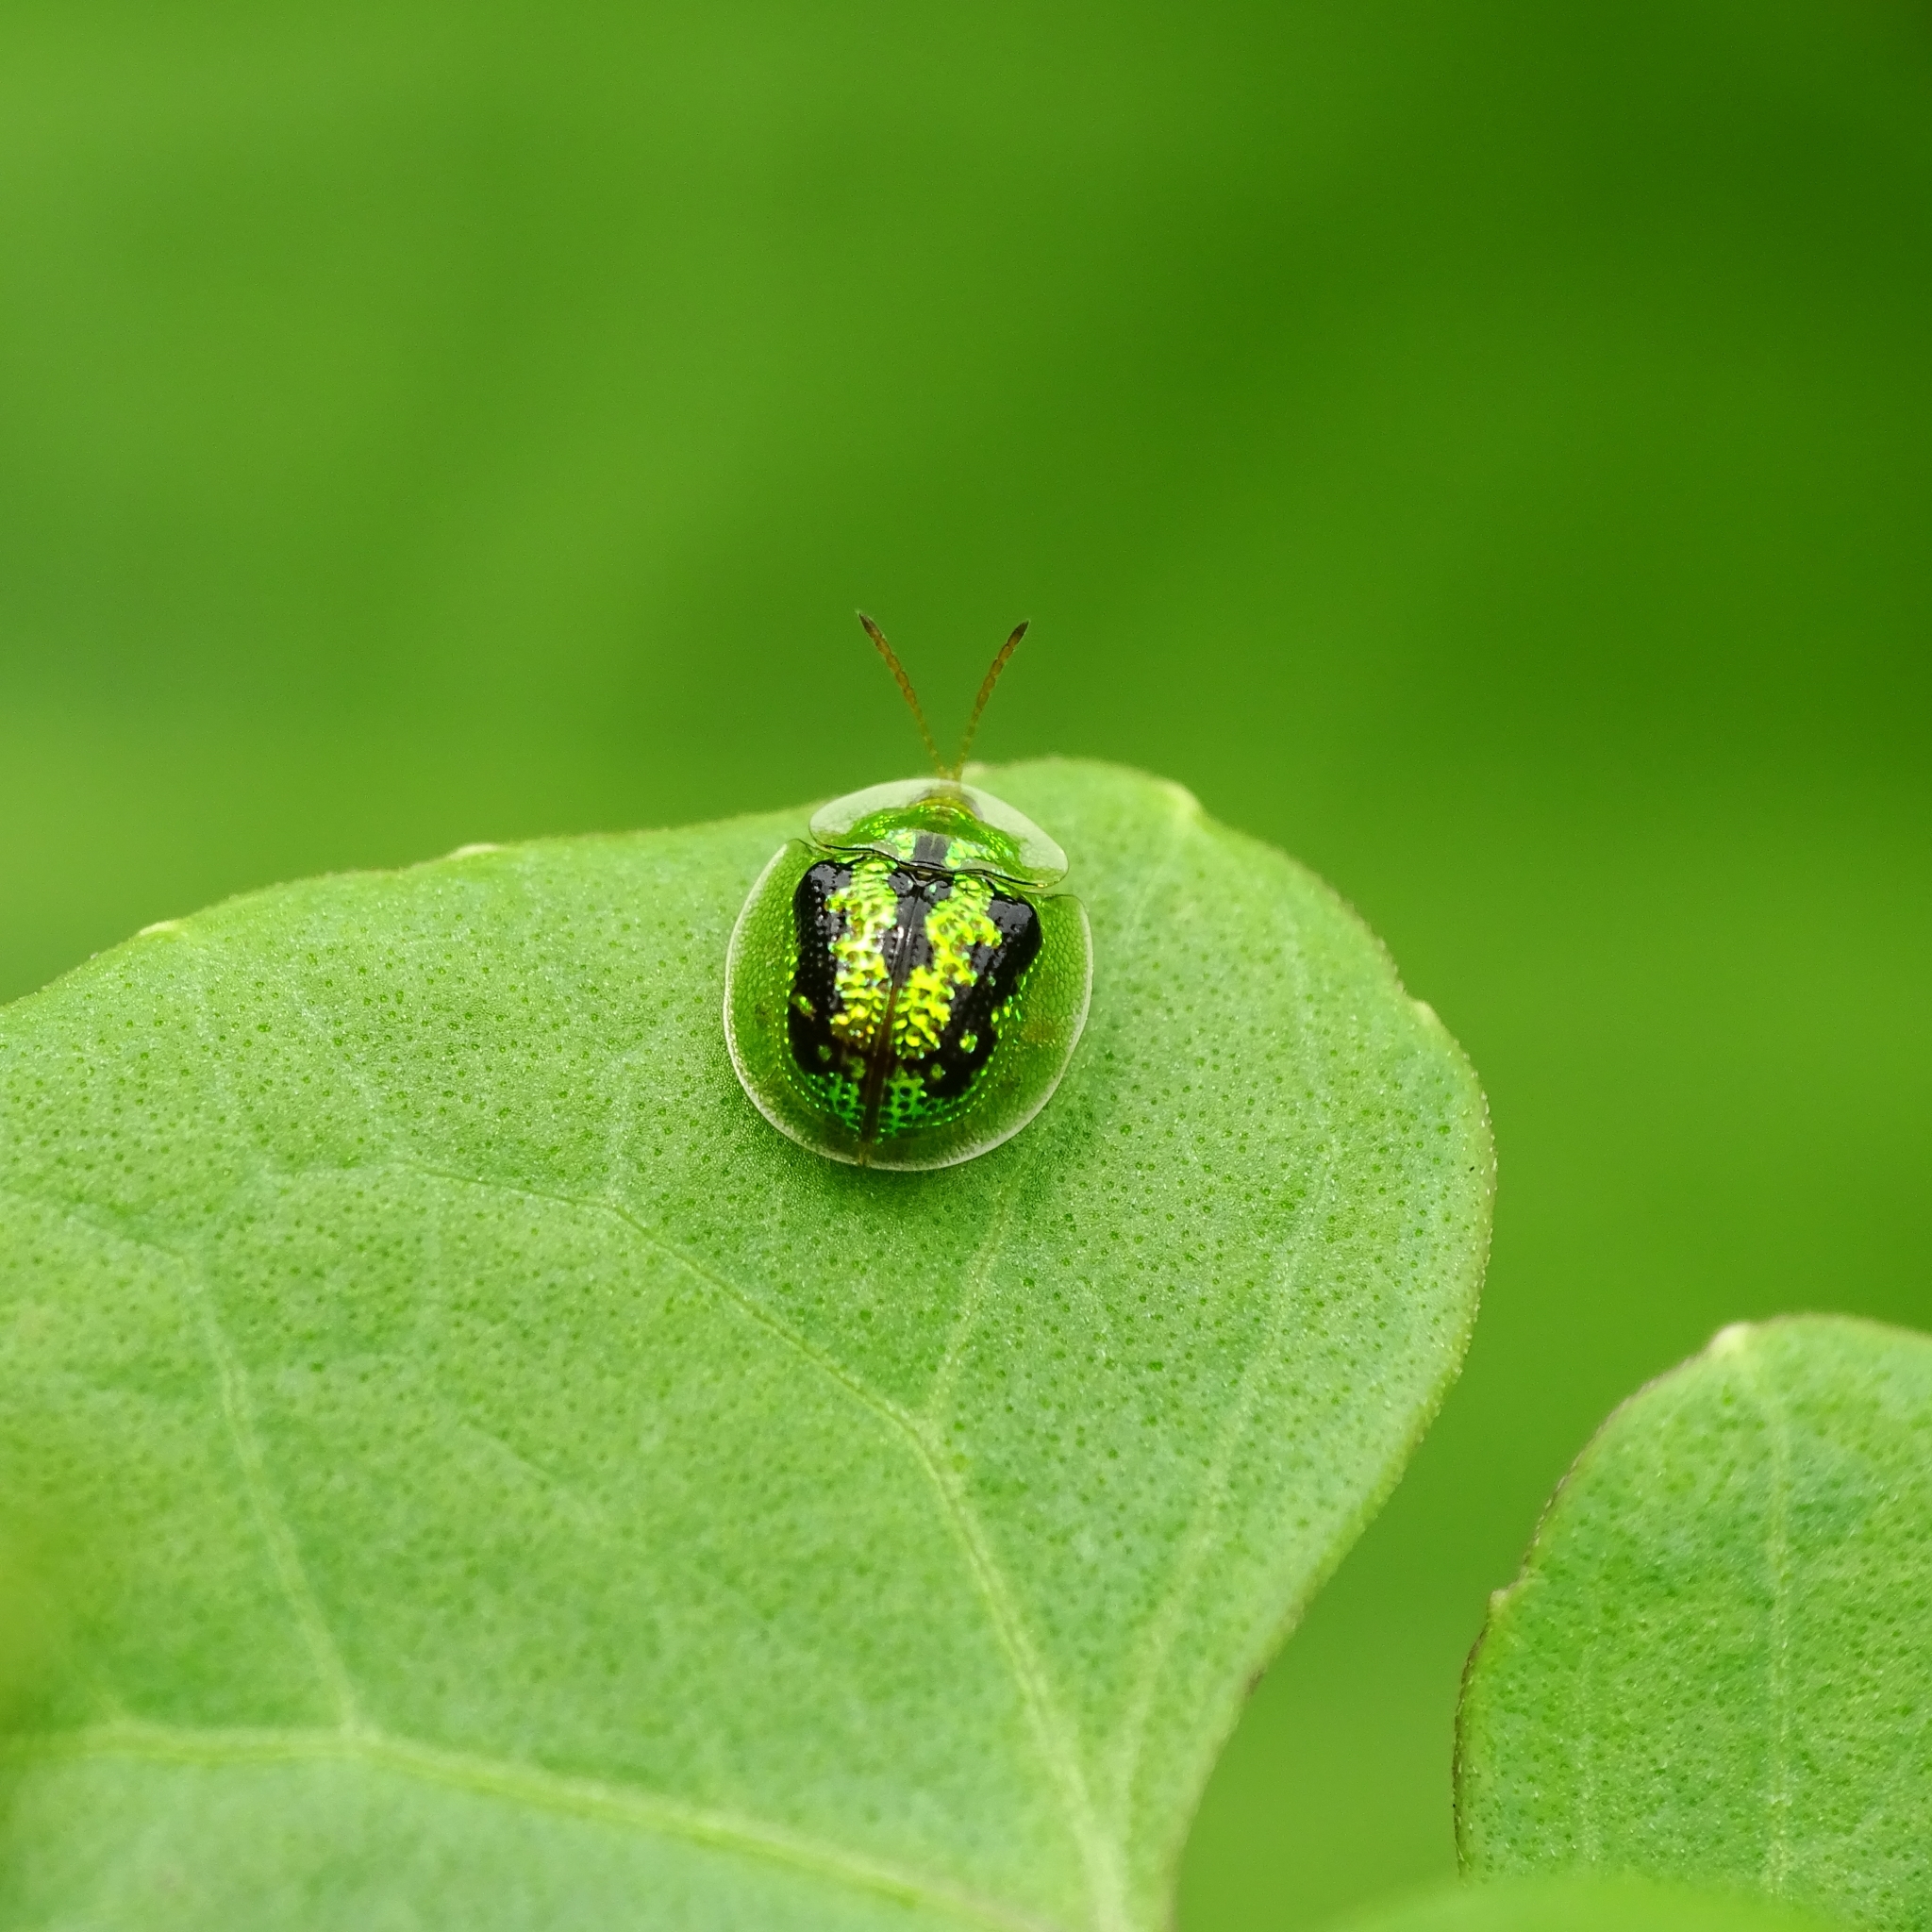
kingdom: Animalia
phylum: Arthropoda
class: Insecta
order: Coleoptera
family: Chrysomelidae
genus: Cassida
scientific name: Cassida circumdata
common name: Tortoise beetle
